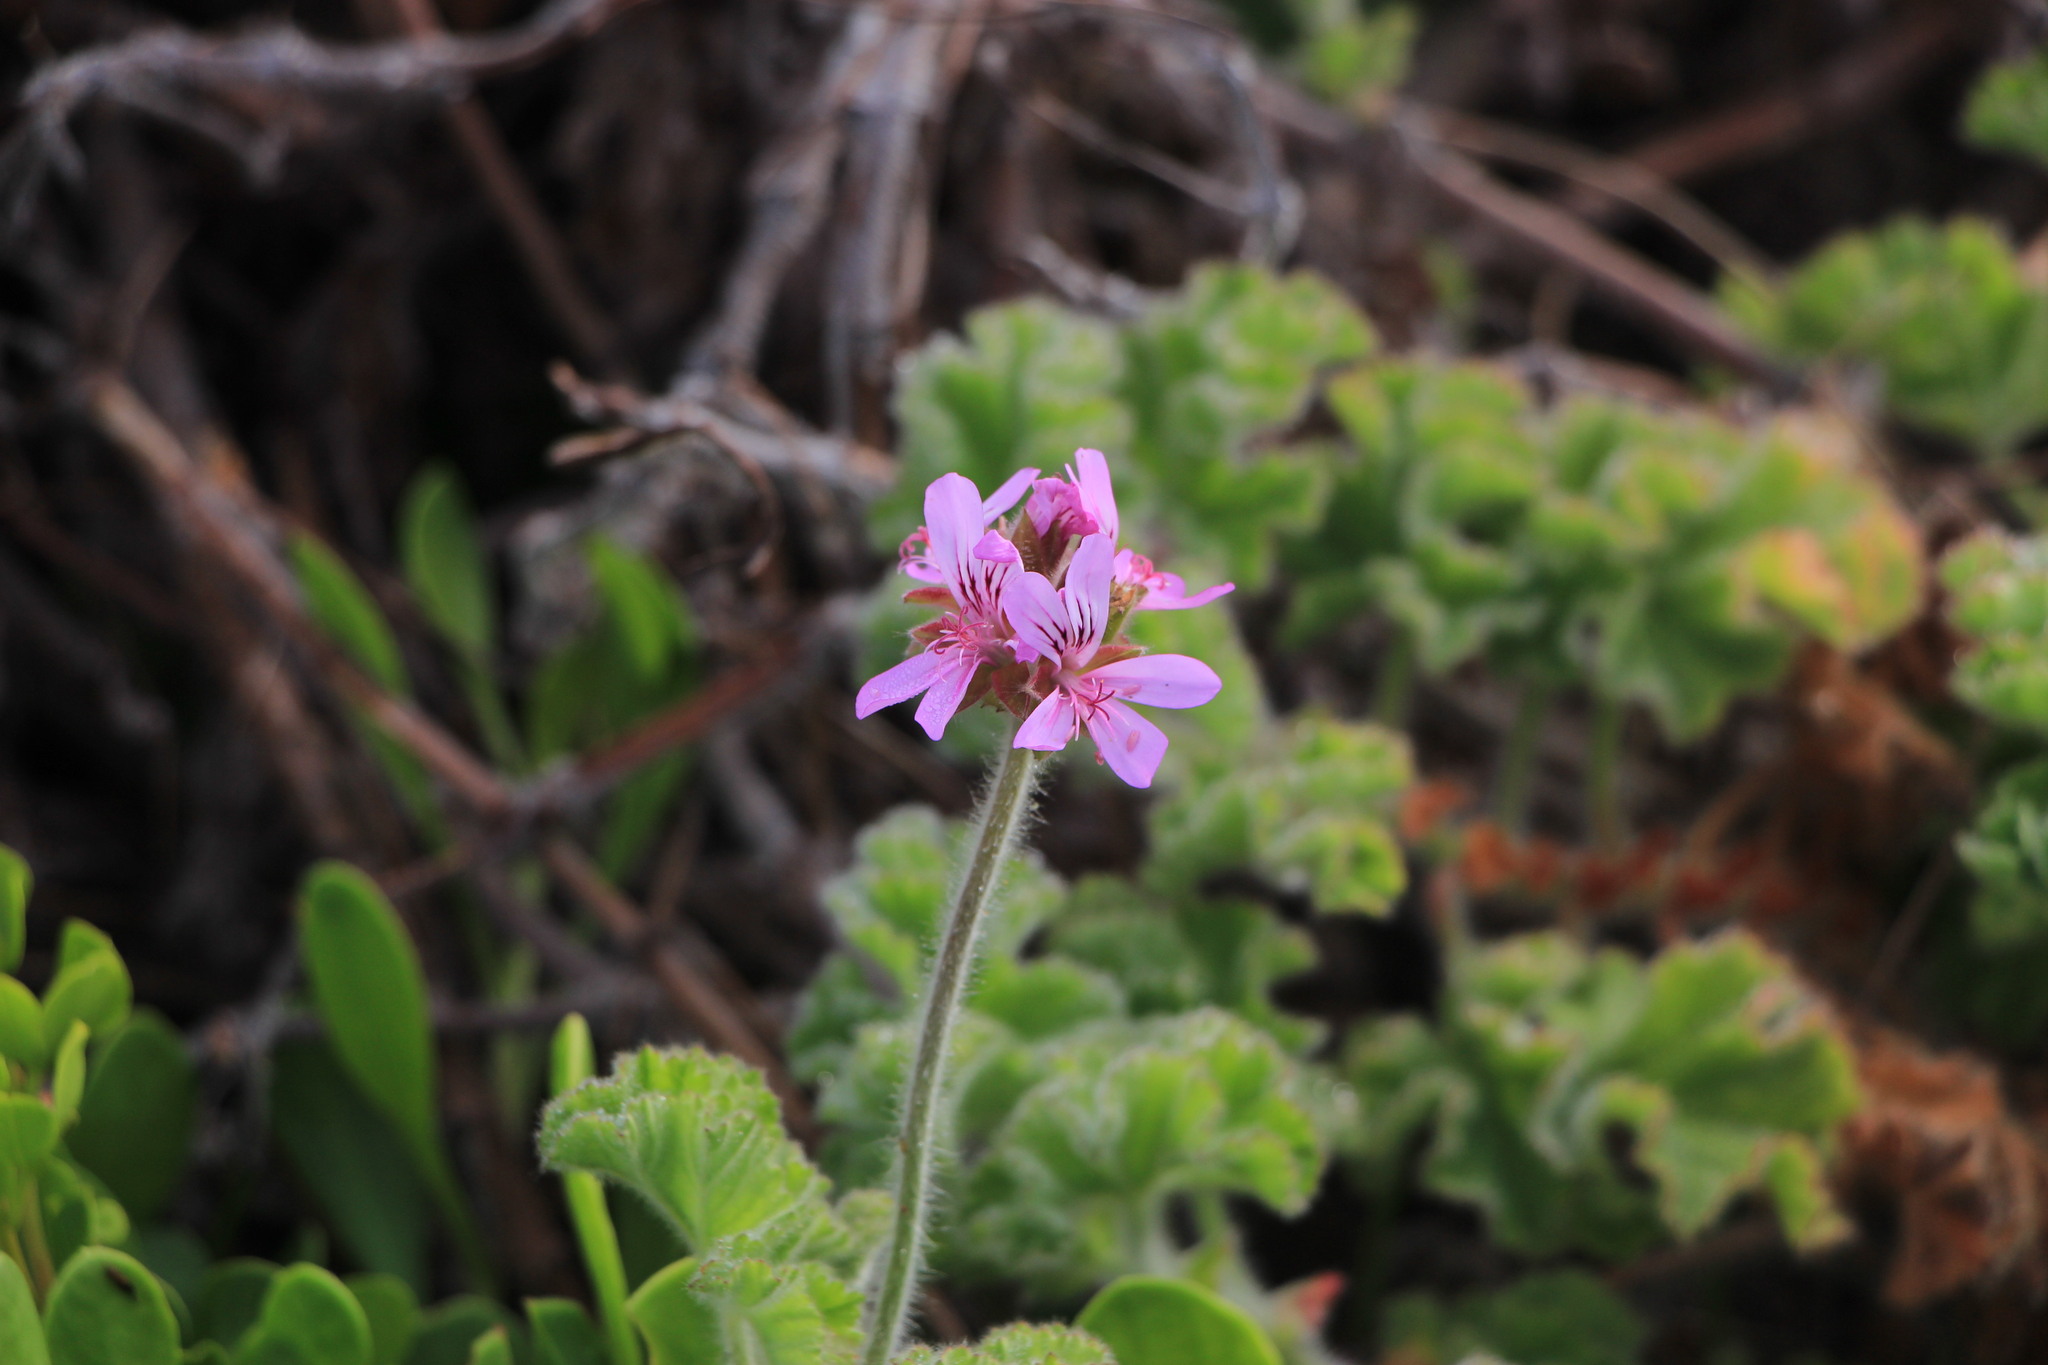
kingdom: Plantae
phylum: Tracheophyta
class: Magnoliopsida
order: Geraniales
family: Geraniaceae
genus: Pelargonium
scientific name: Pelargonium capitatum
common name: Rose scented geranium
